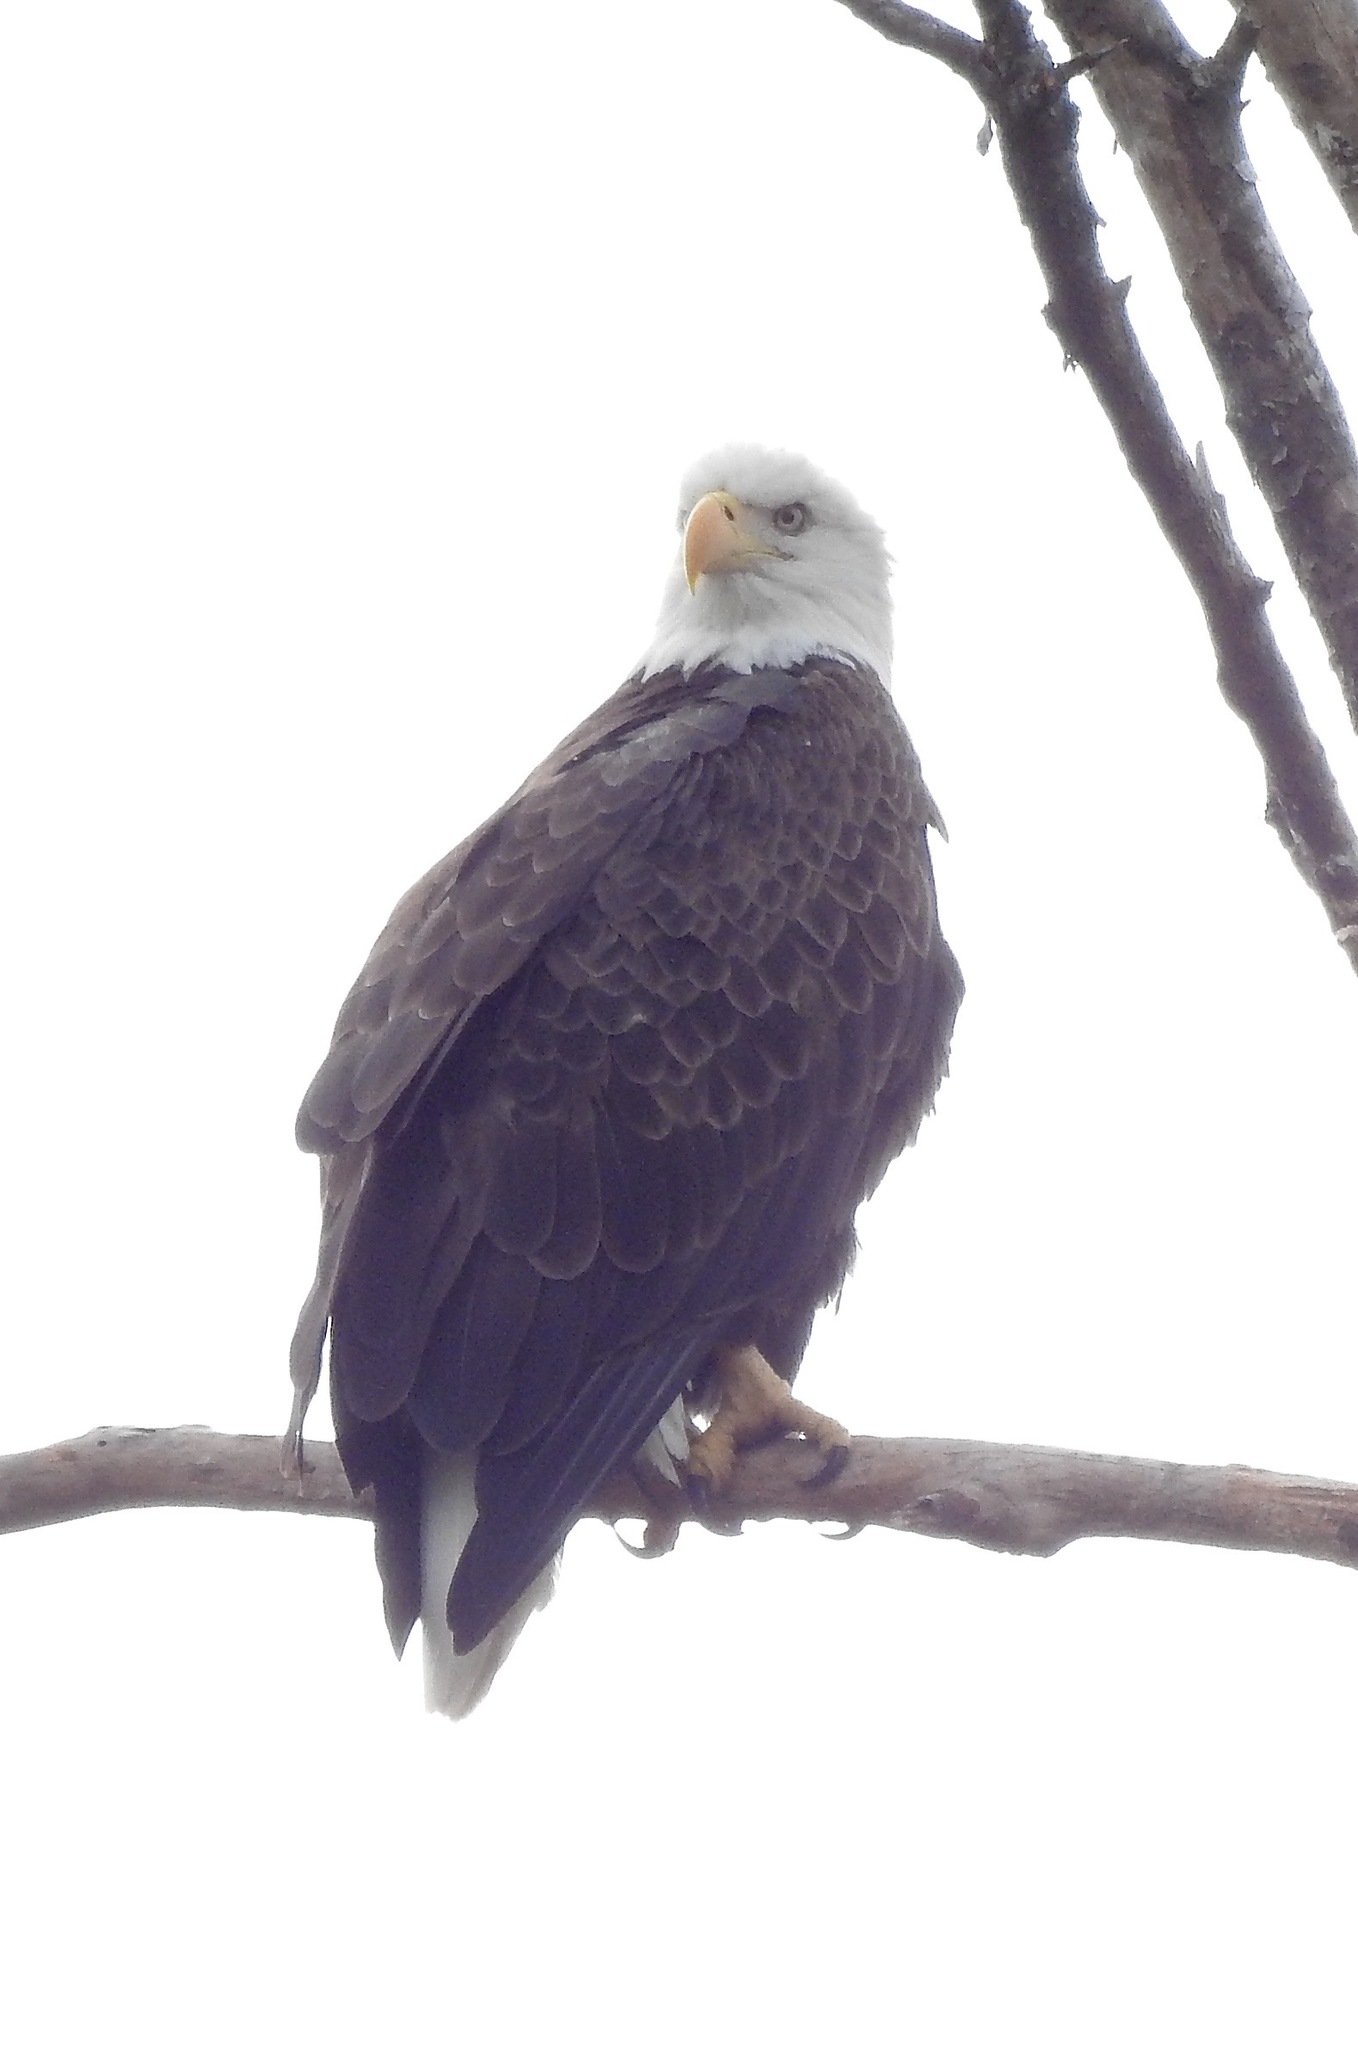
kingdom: Animalia
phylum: Chordata
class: Aves
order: Accipitriformes
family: Accipitridae
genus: Haliaeetus
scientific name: Haliaeetus leucocephalus
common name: Bald eagle
